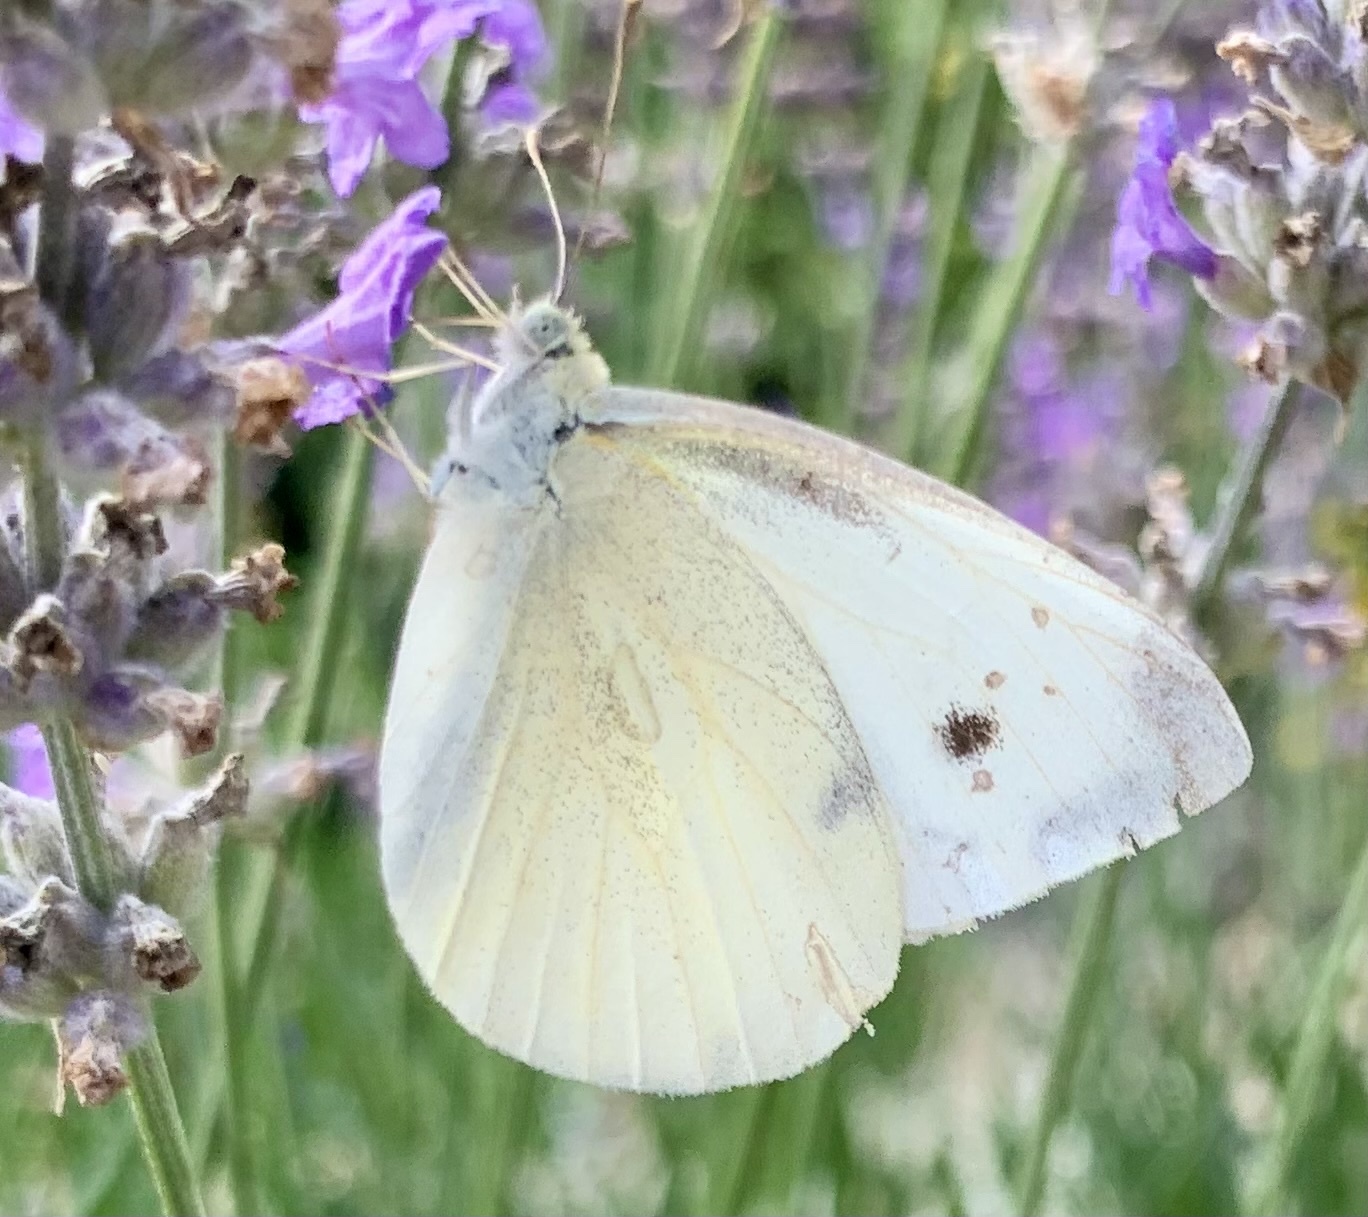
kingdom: Animalia
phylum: Arthropoda
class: Insecta
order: Lepidoptera
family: Pieridae
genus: Pieris
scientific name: Pieris rapae
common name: Small white
